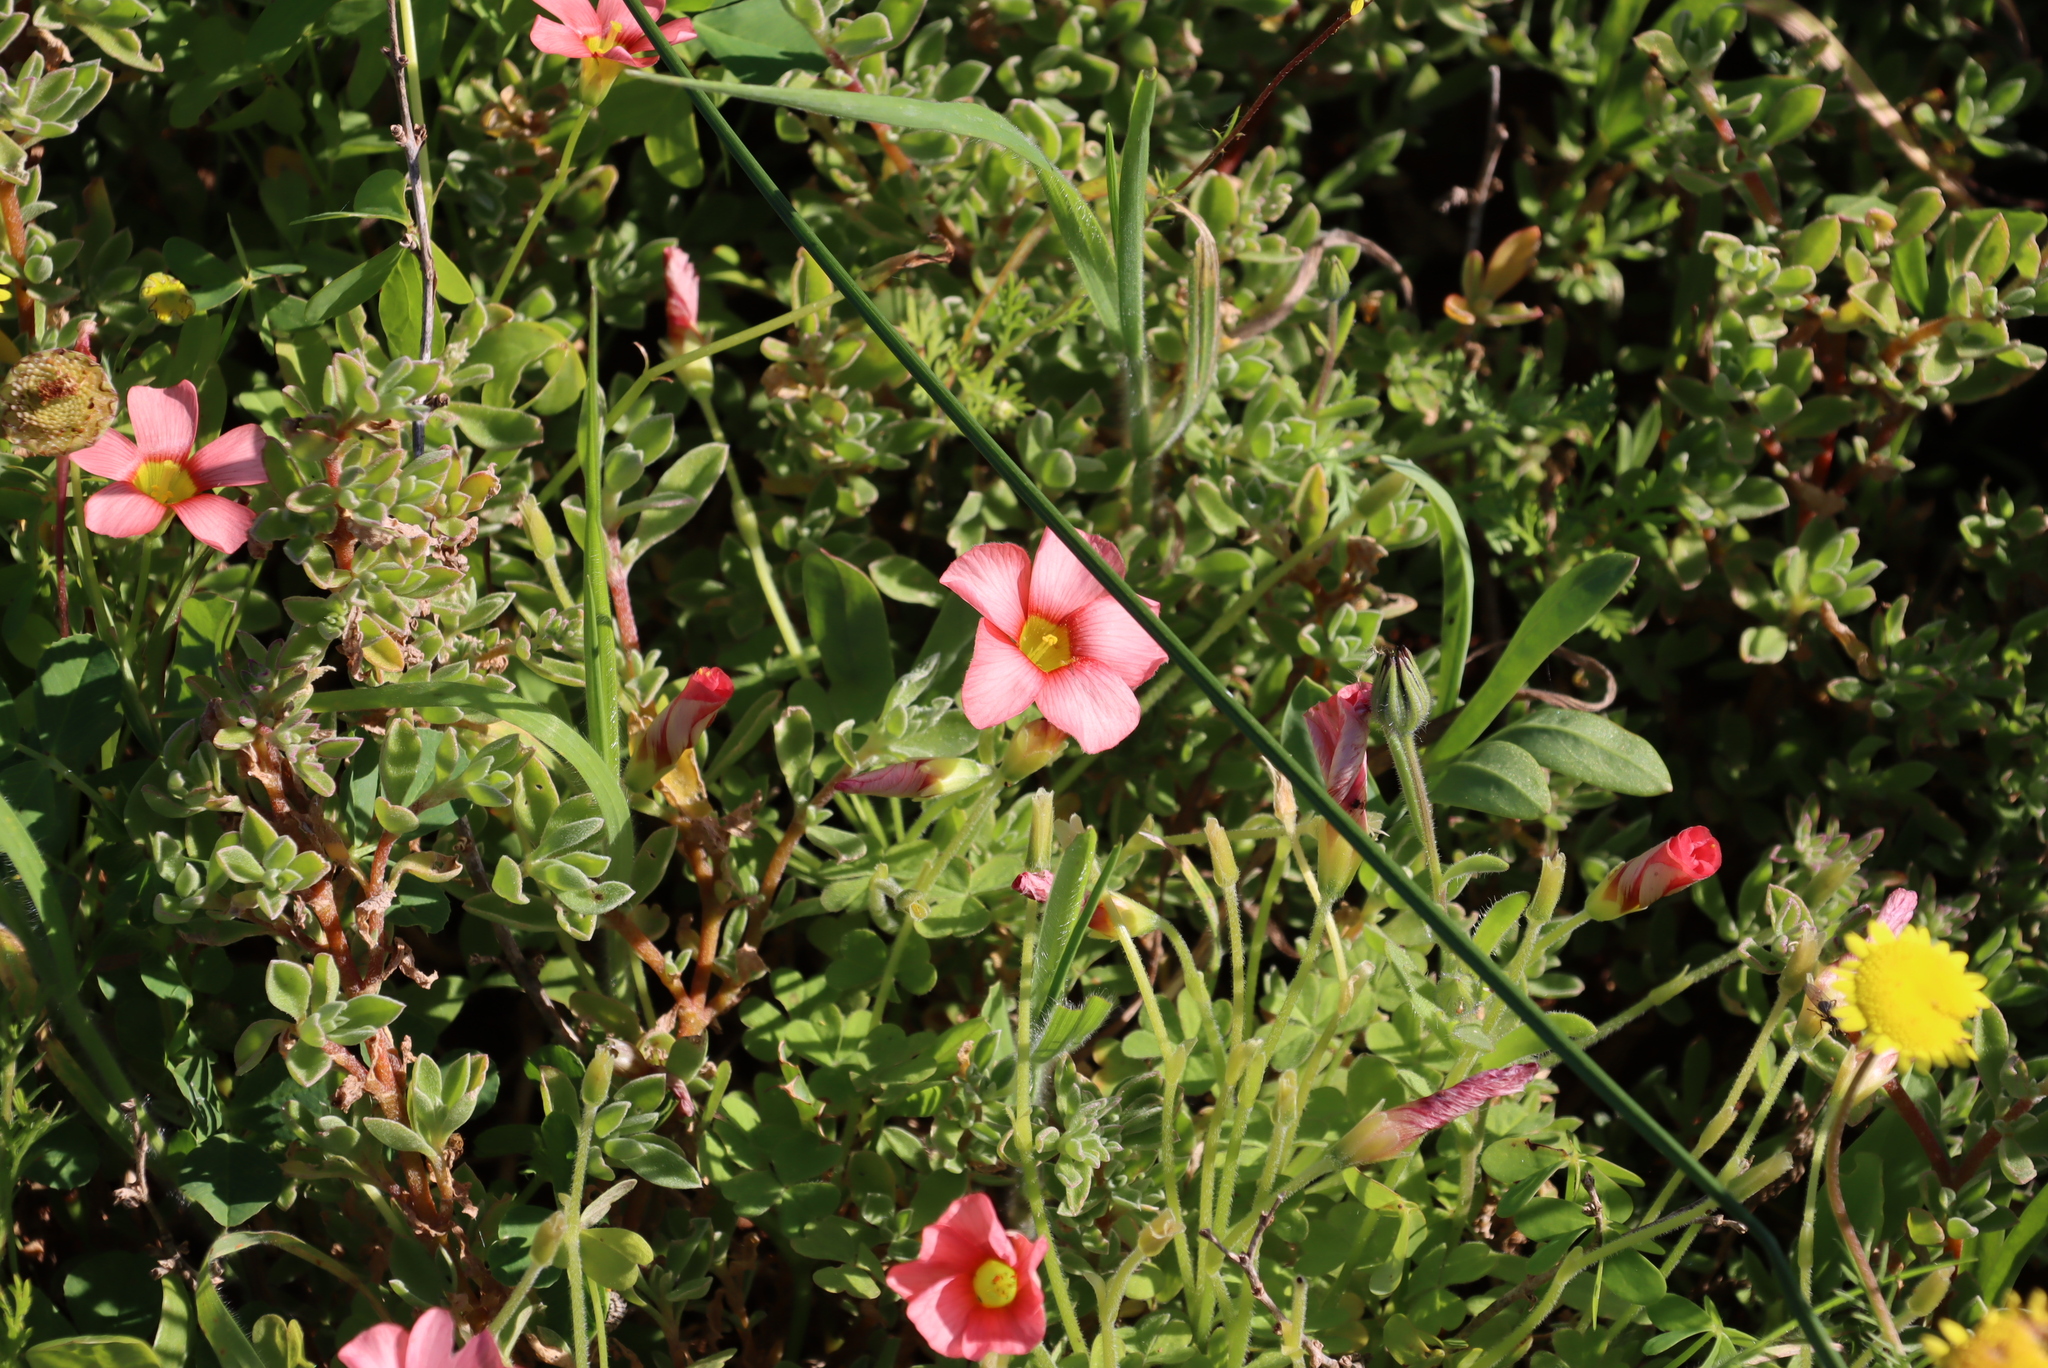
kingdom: Plantae
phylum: Tracheophyta
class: Magnoliopsida
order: Oxalidales
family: Oxalidaceae
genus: Oxalis
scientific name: Oxalis obtusa
